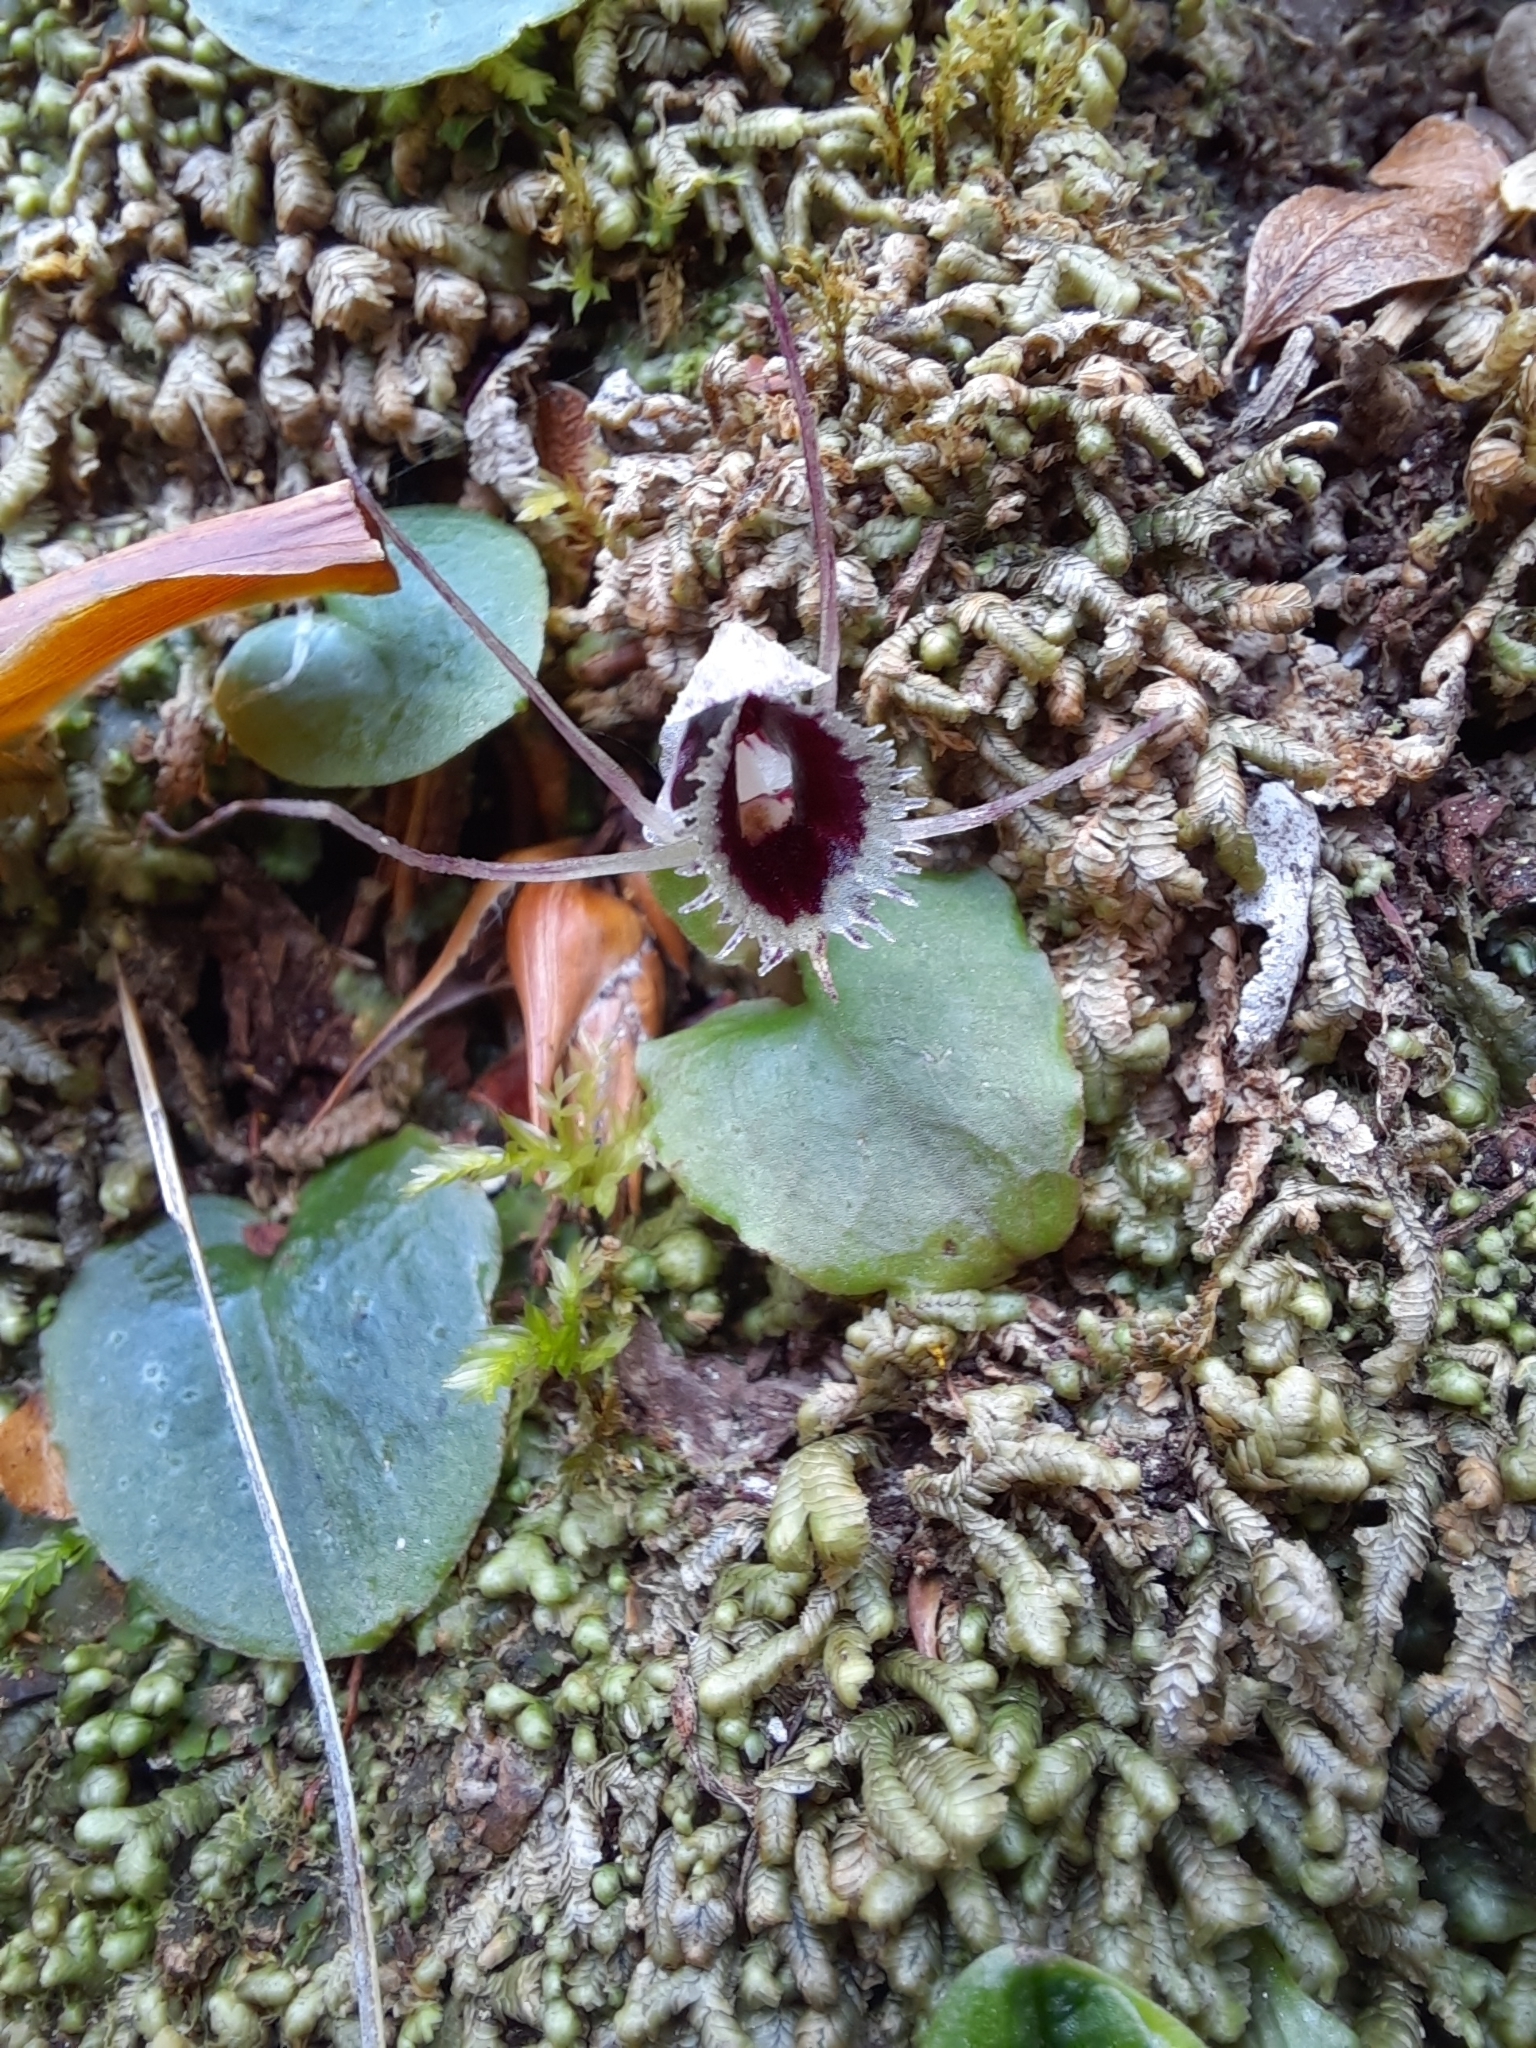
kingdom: Plantae
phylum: Tracheophyta
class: Liliopsida
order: Asparagales
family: Orchidaceae
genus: Corybas
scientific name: Corybas oblongus
